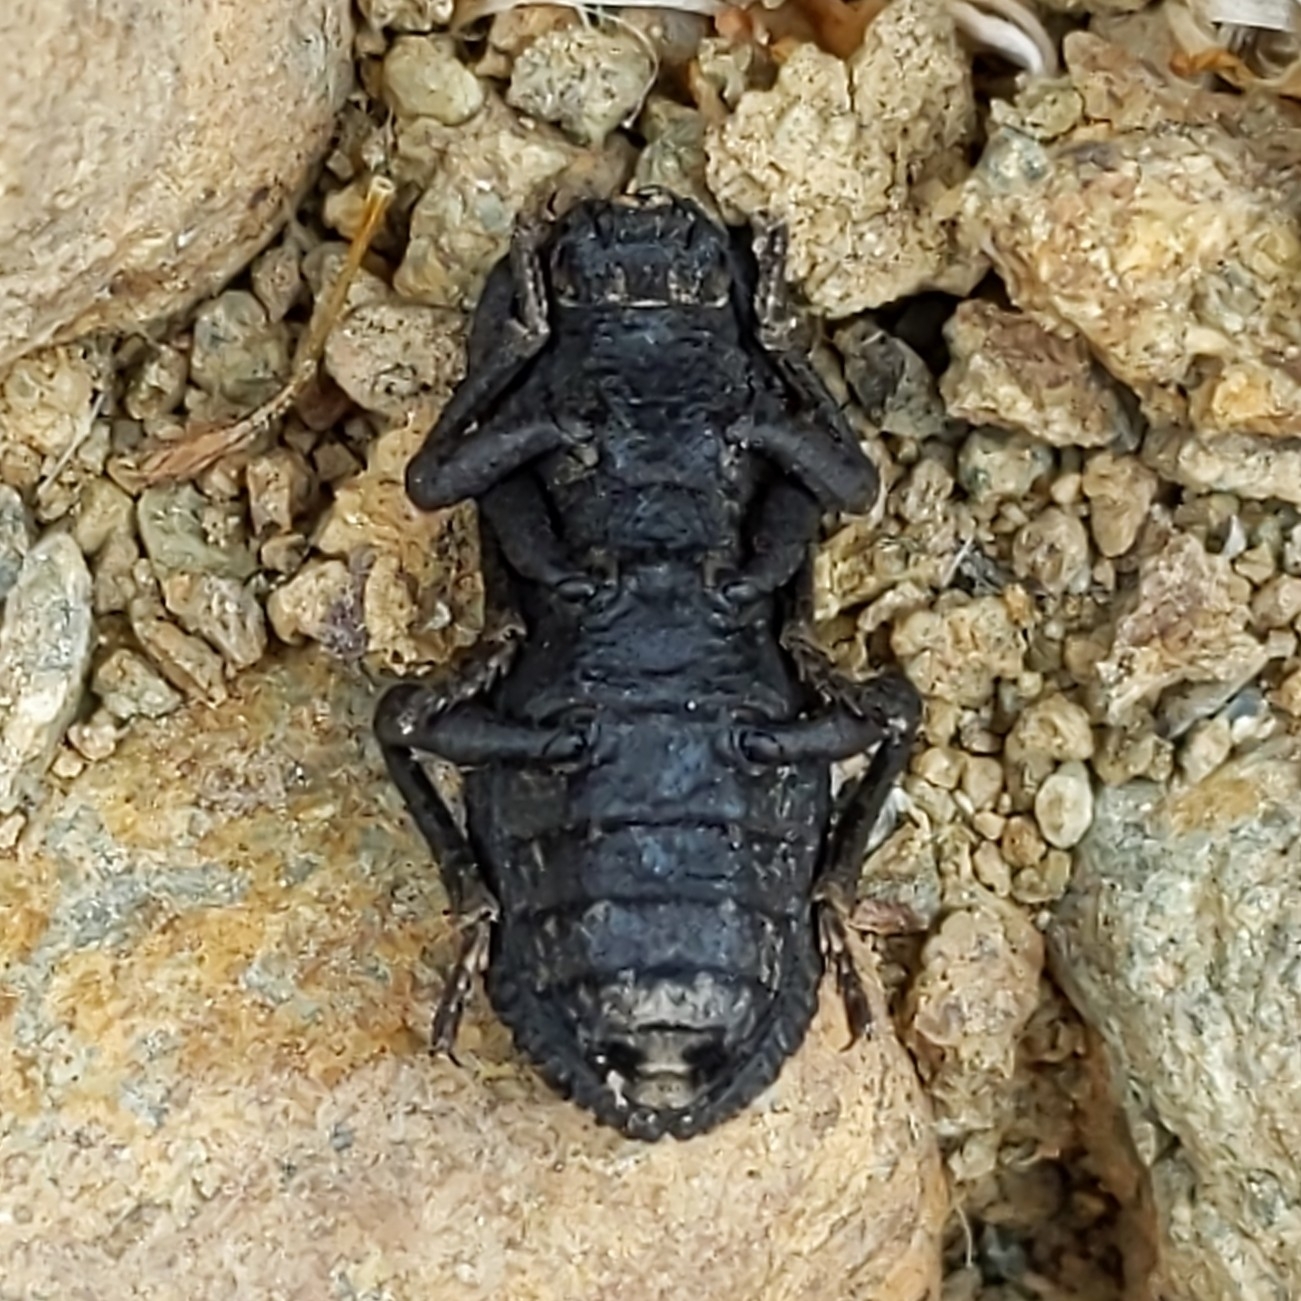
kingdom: Animalia
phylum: Arthropoda
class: Insecta
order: Coleoptera
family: Zopheridae
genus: Phloeodes
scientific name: Phloeodes diabolicus
